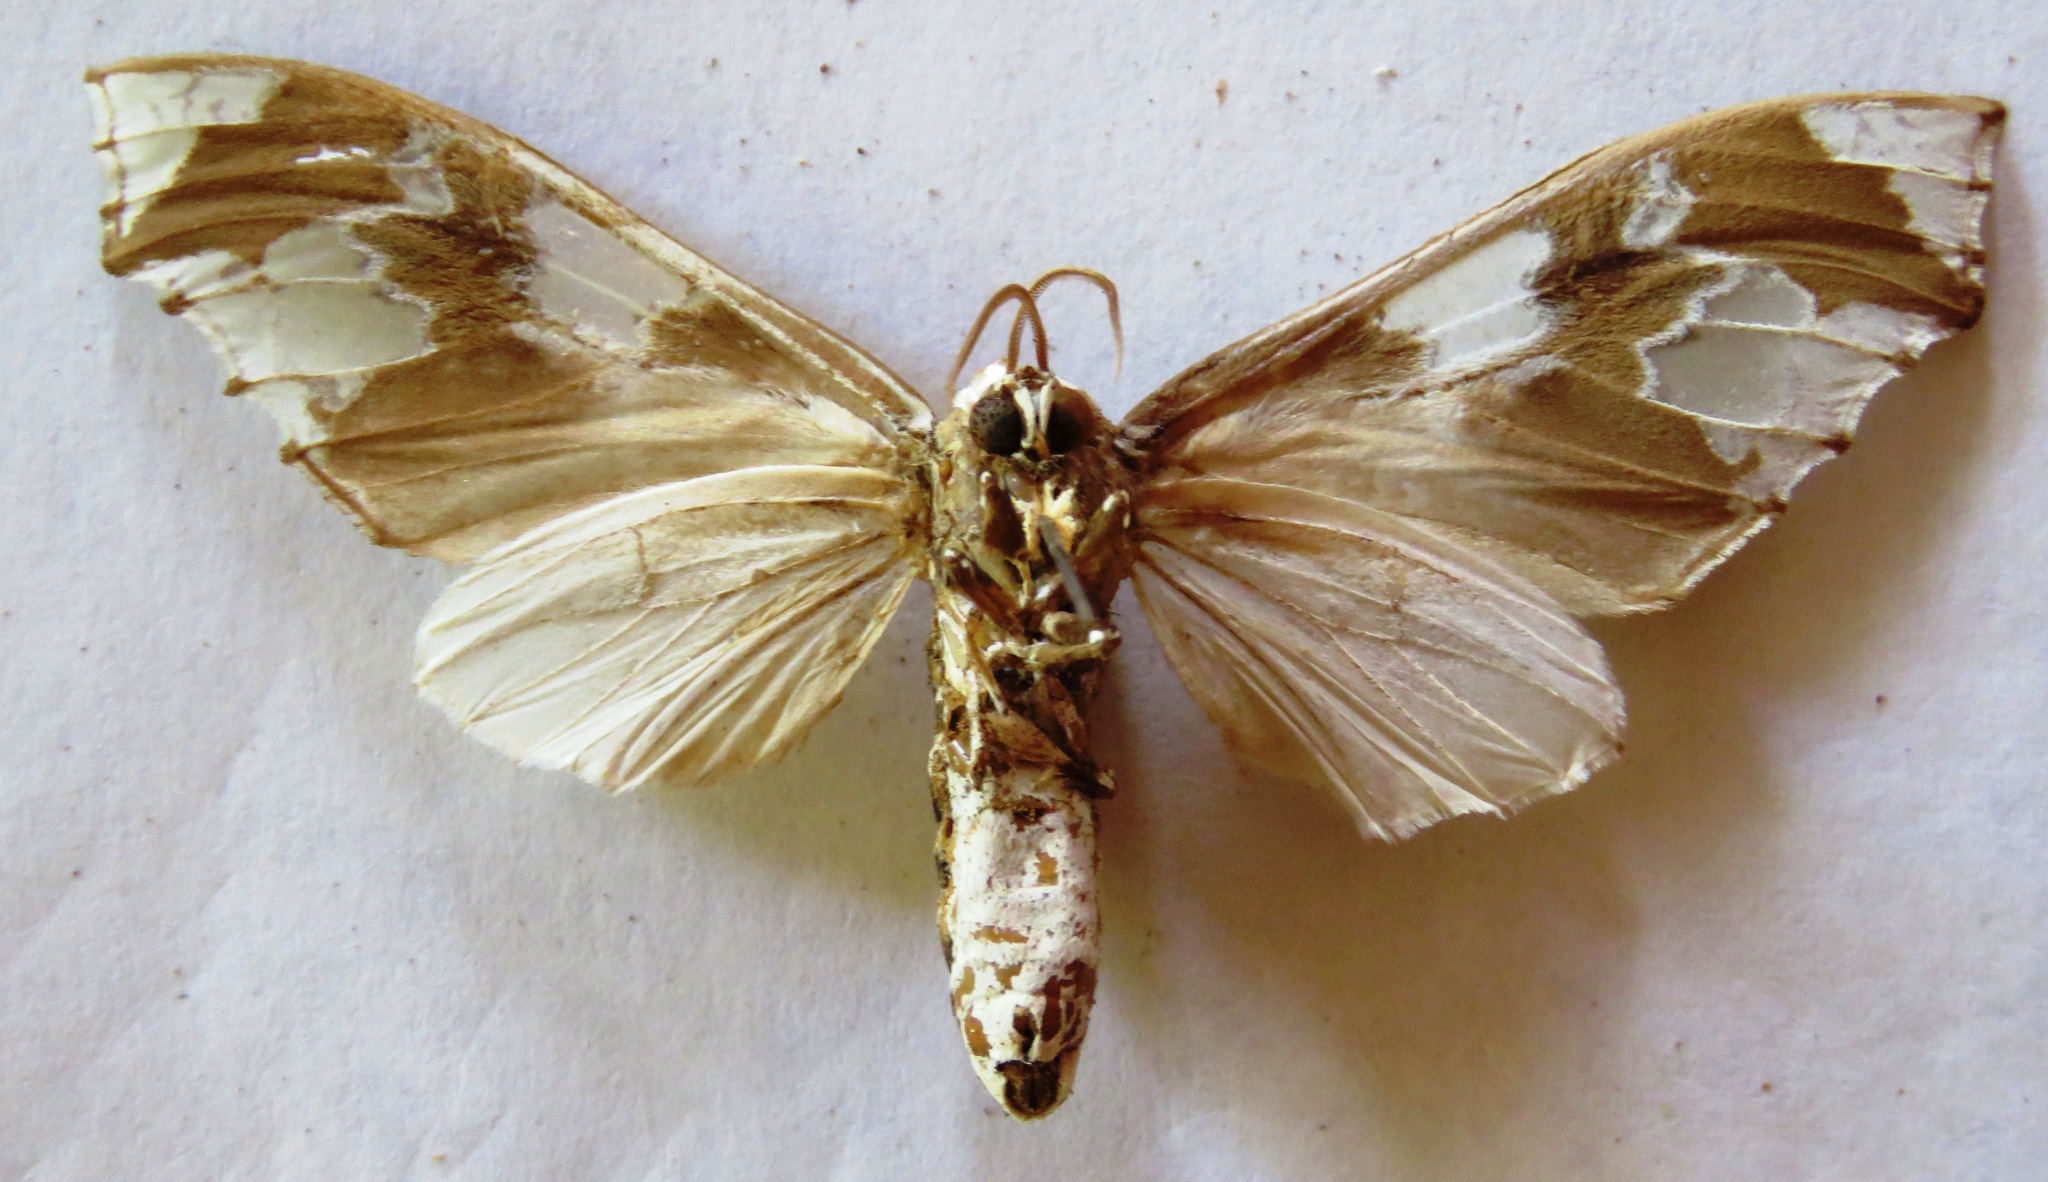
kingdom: Animalia
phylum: Arthropoda
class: Insecta
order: Lepidoptera
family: Erebidae
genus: Parathyris
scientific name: Parathyris
